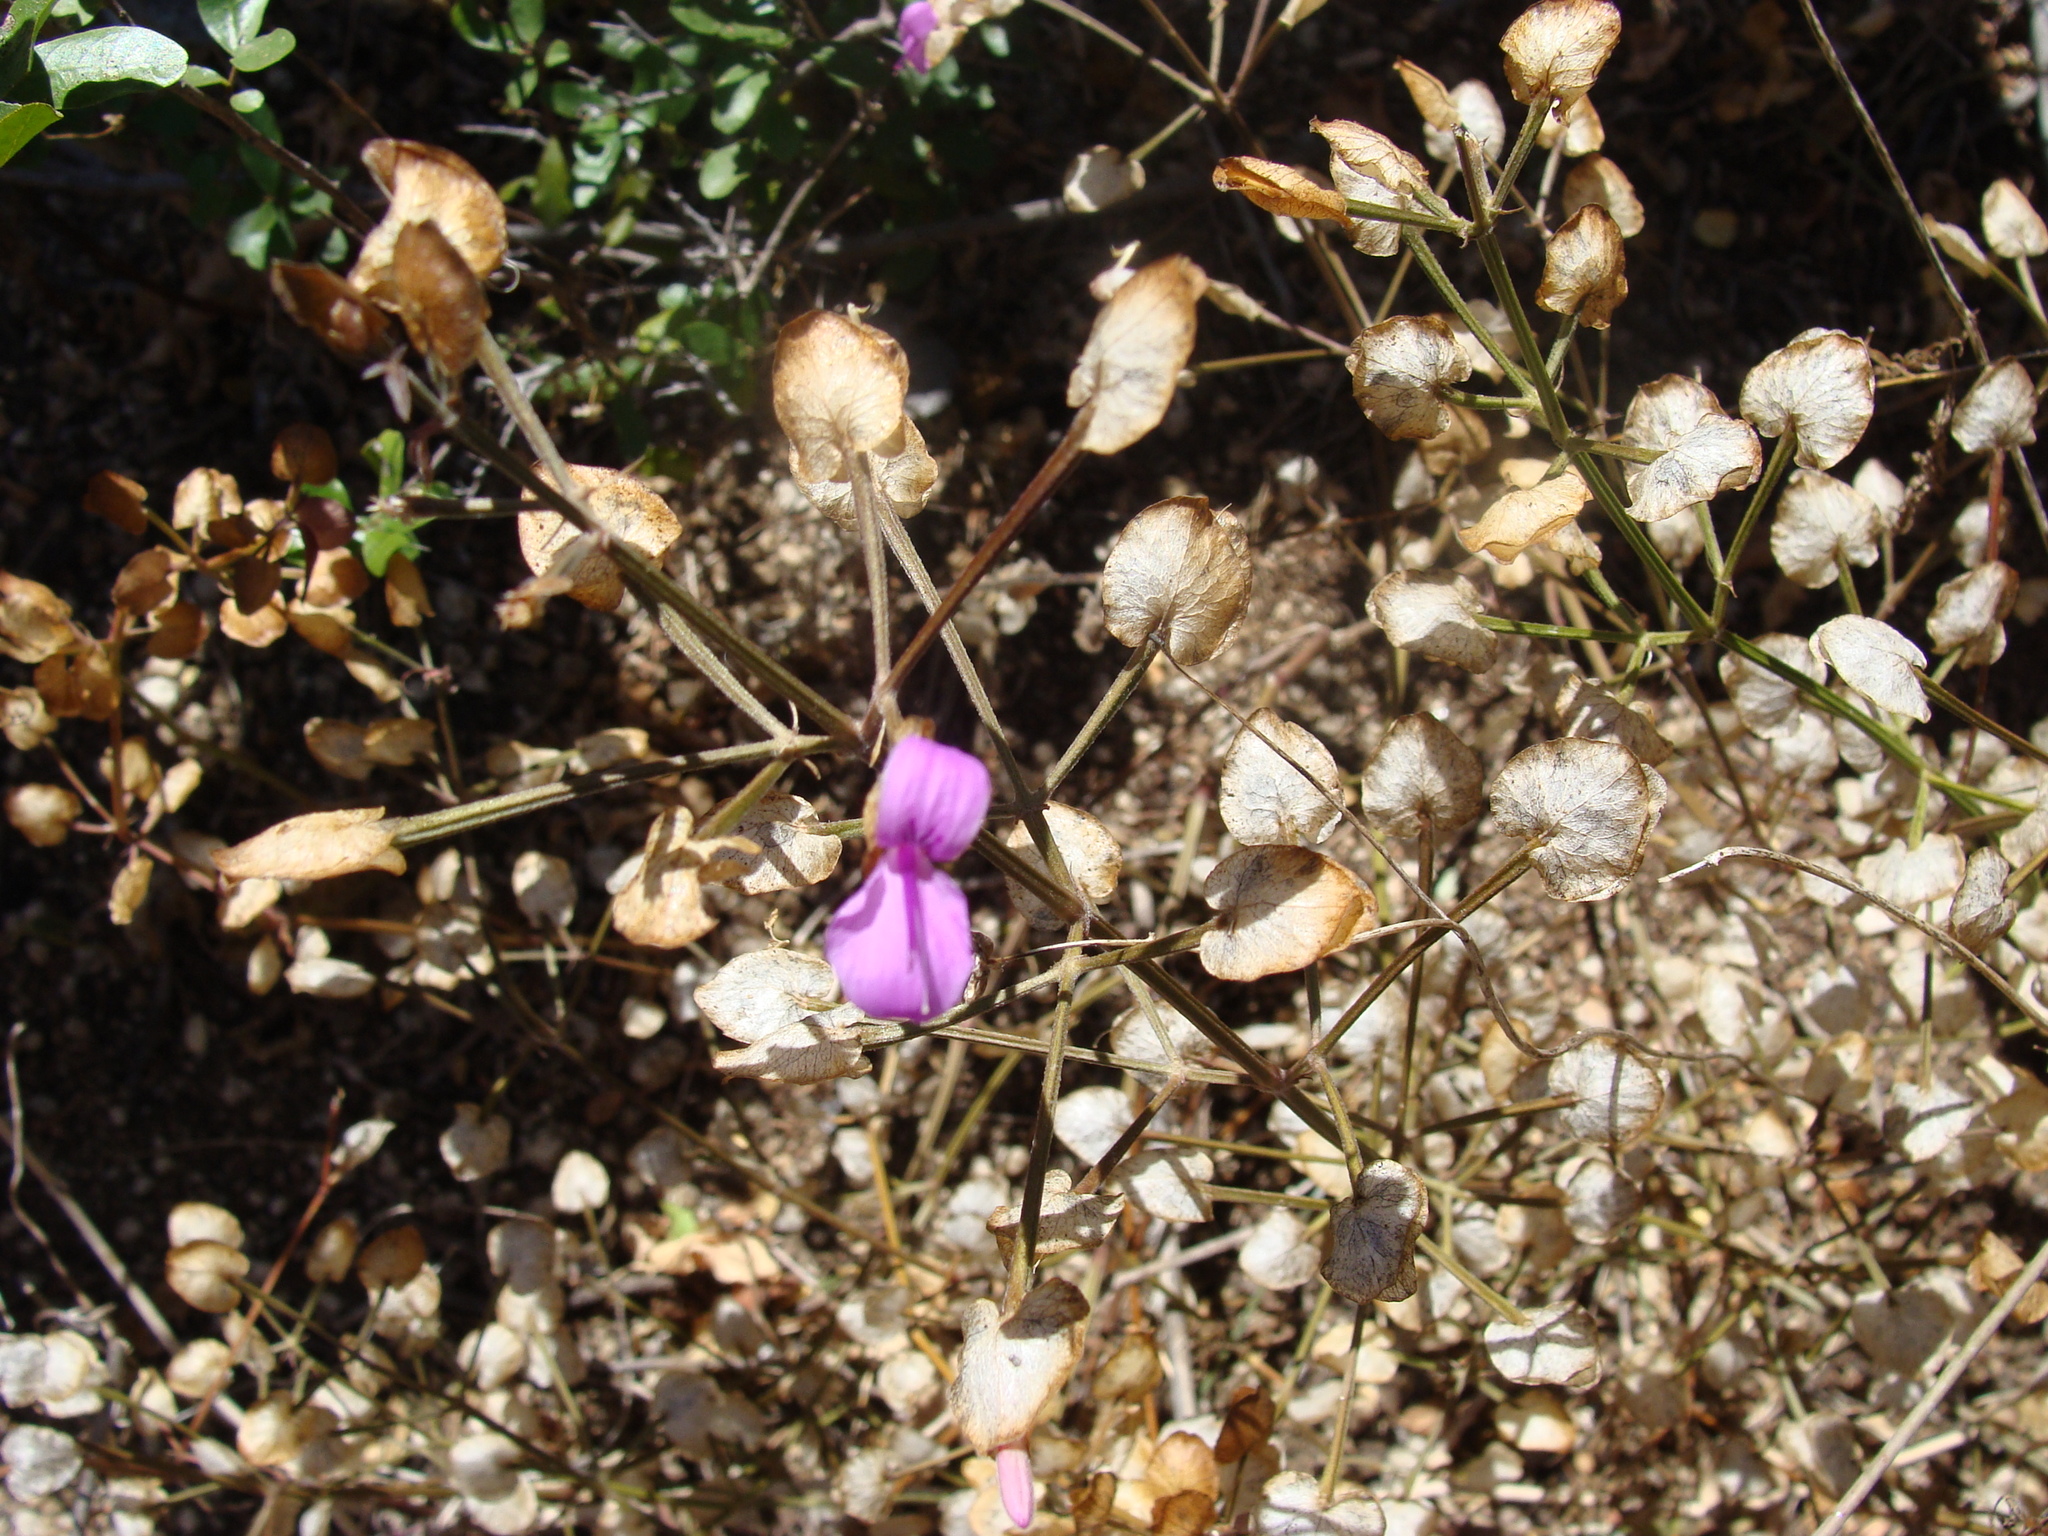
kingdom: Plantae
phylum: Tracheophyta
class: Magnoliopsida
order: Lamiales
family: Acanthaceae
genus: Dicliptera
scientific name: Dicliptera resupinata
